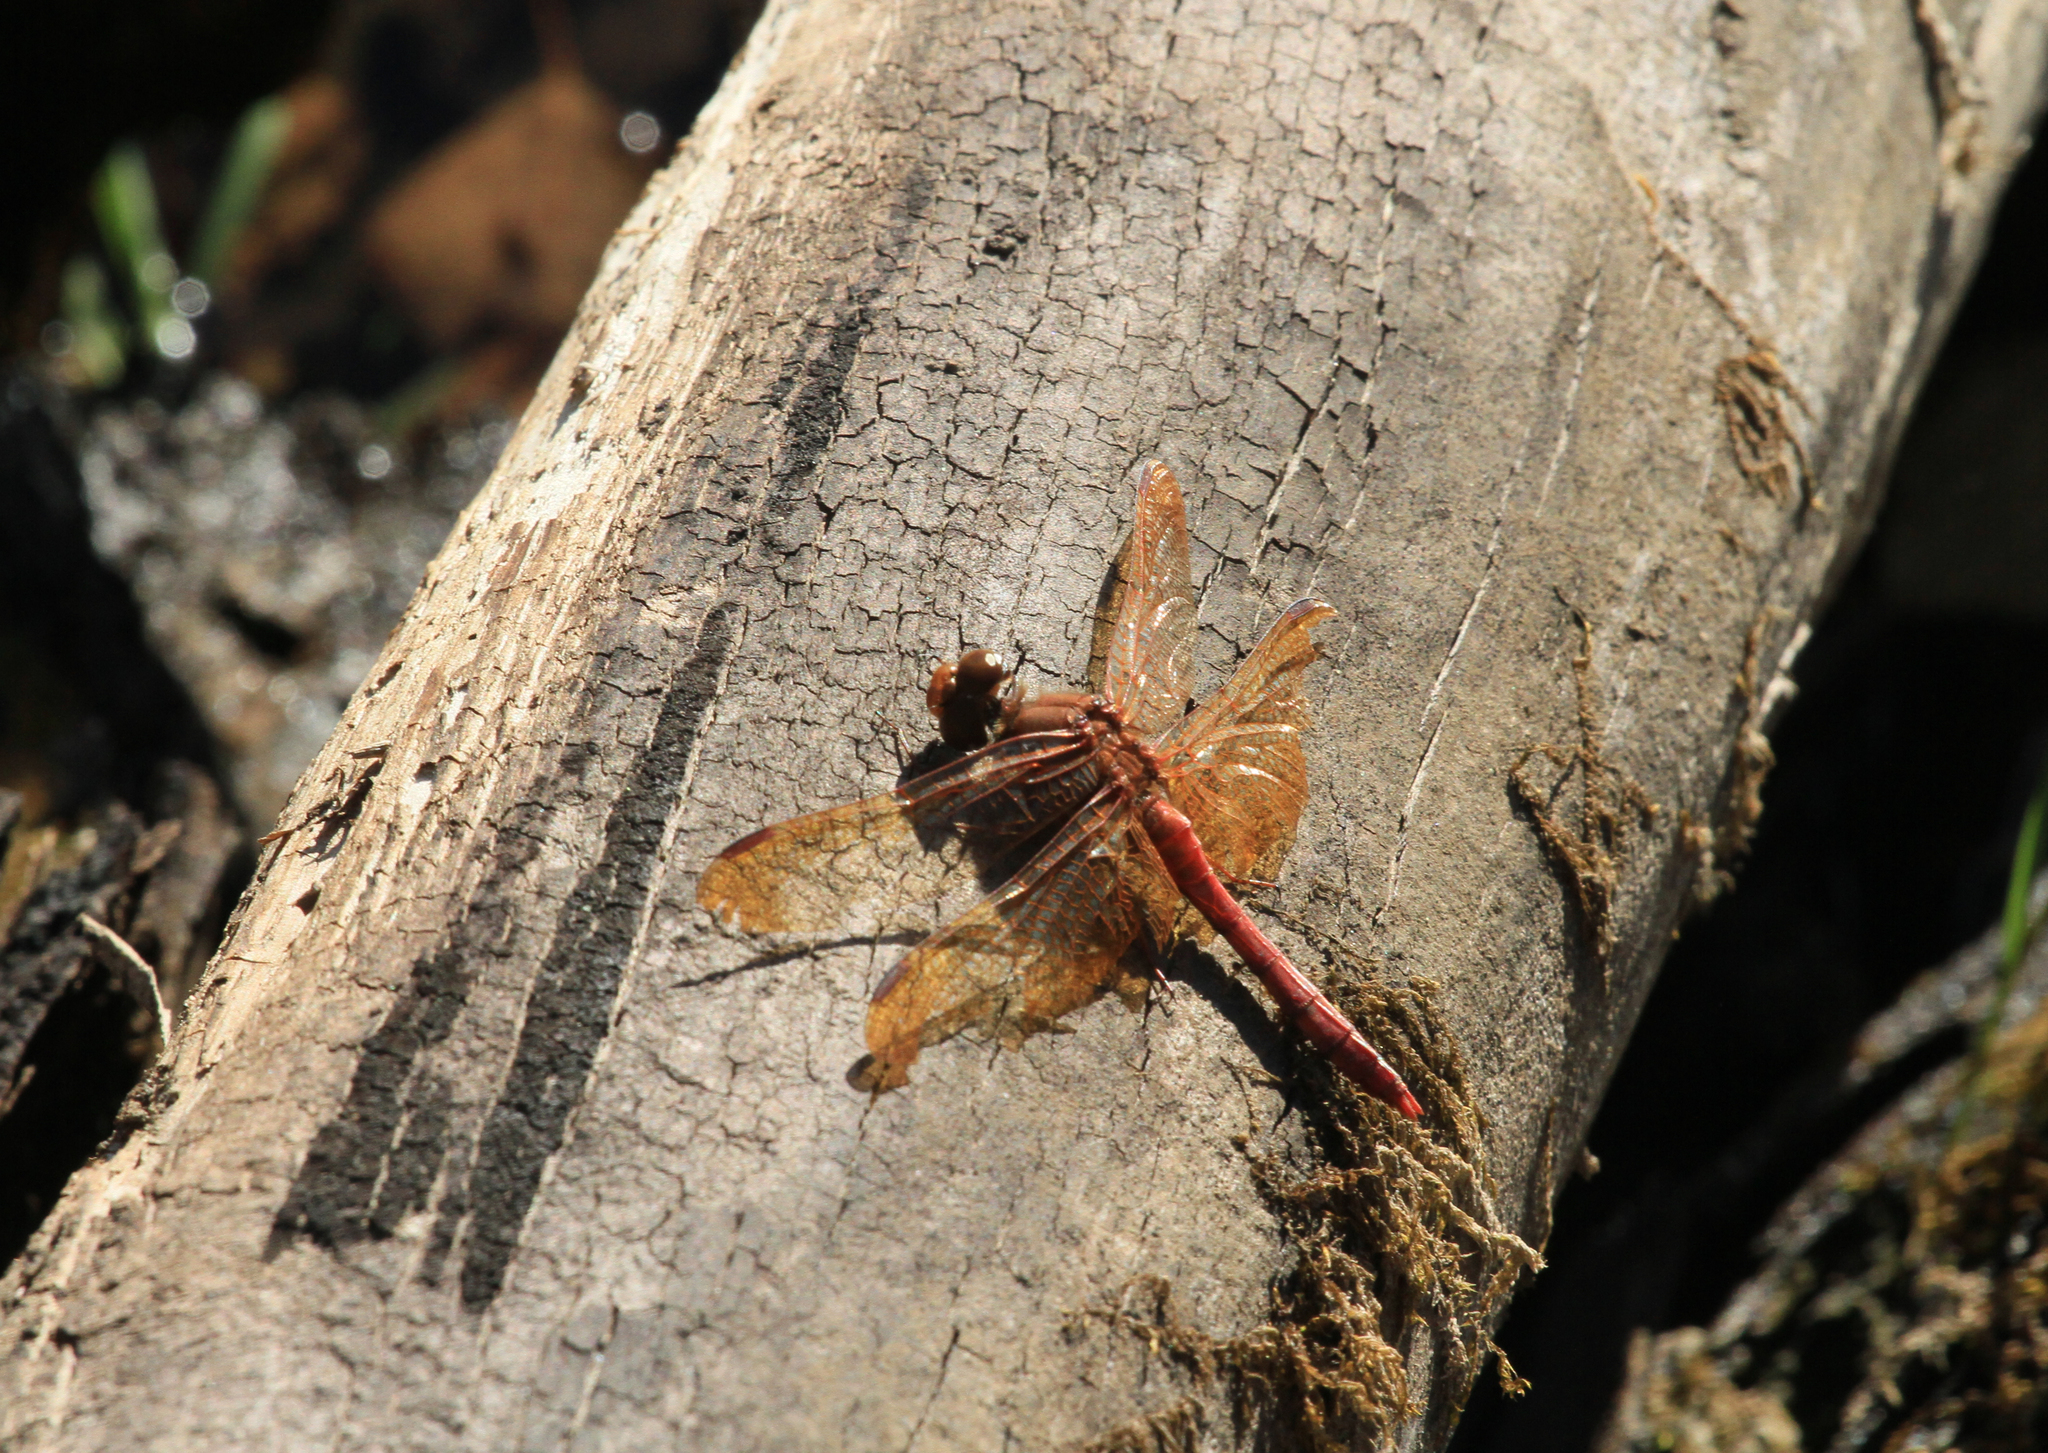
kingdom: Animalia
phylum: Arthropoda
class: Insecta
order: Odonata
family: Libellulidae
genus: Sympetrum
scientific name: Sympetrum croceolum
